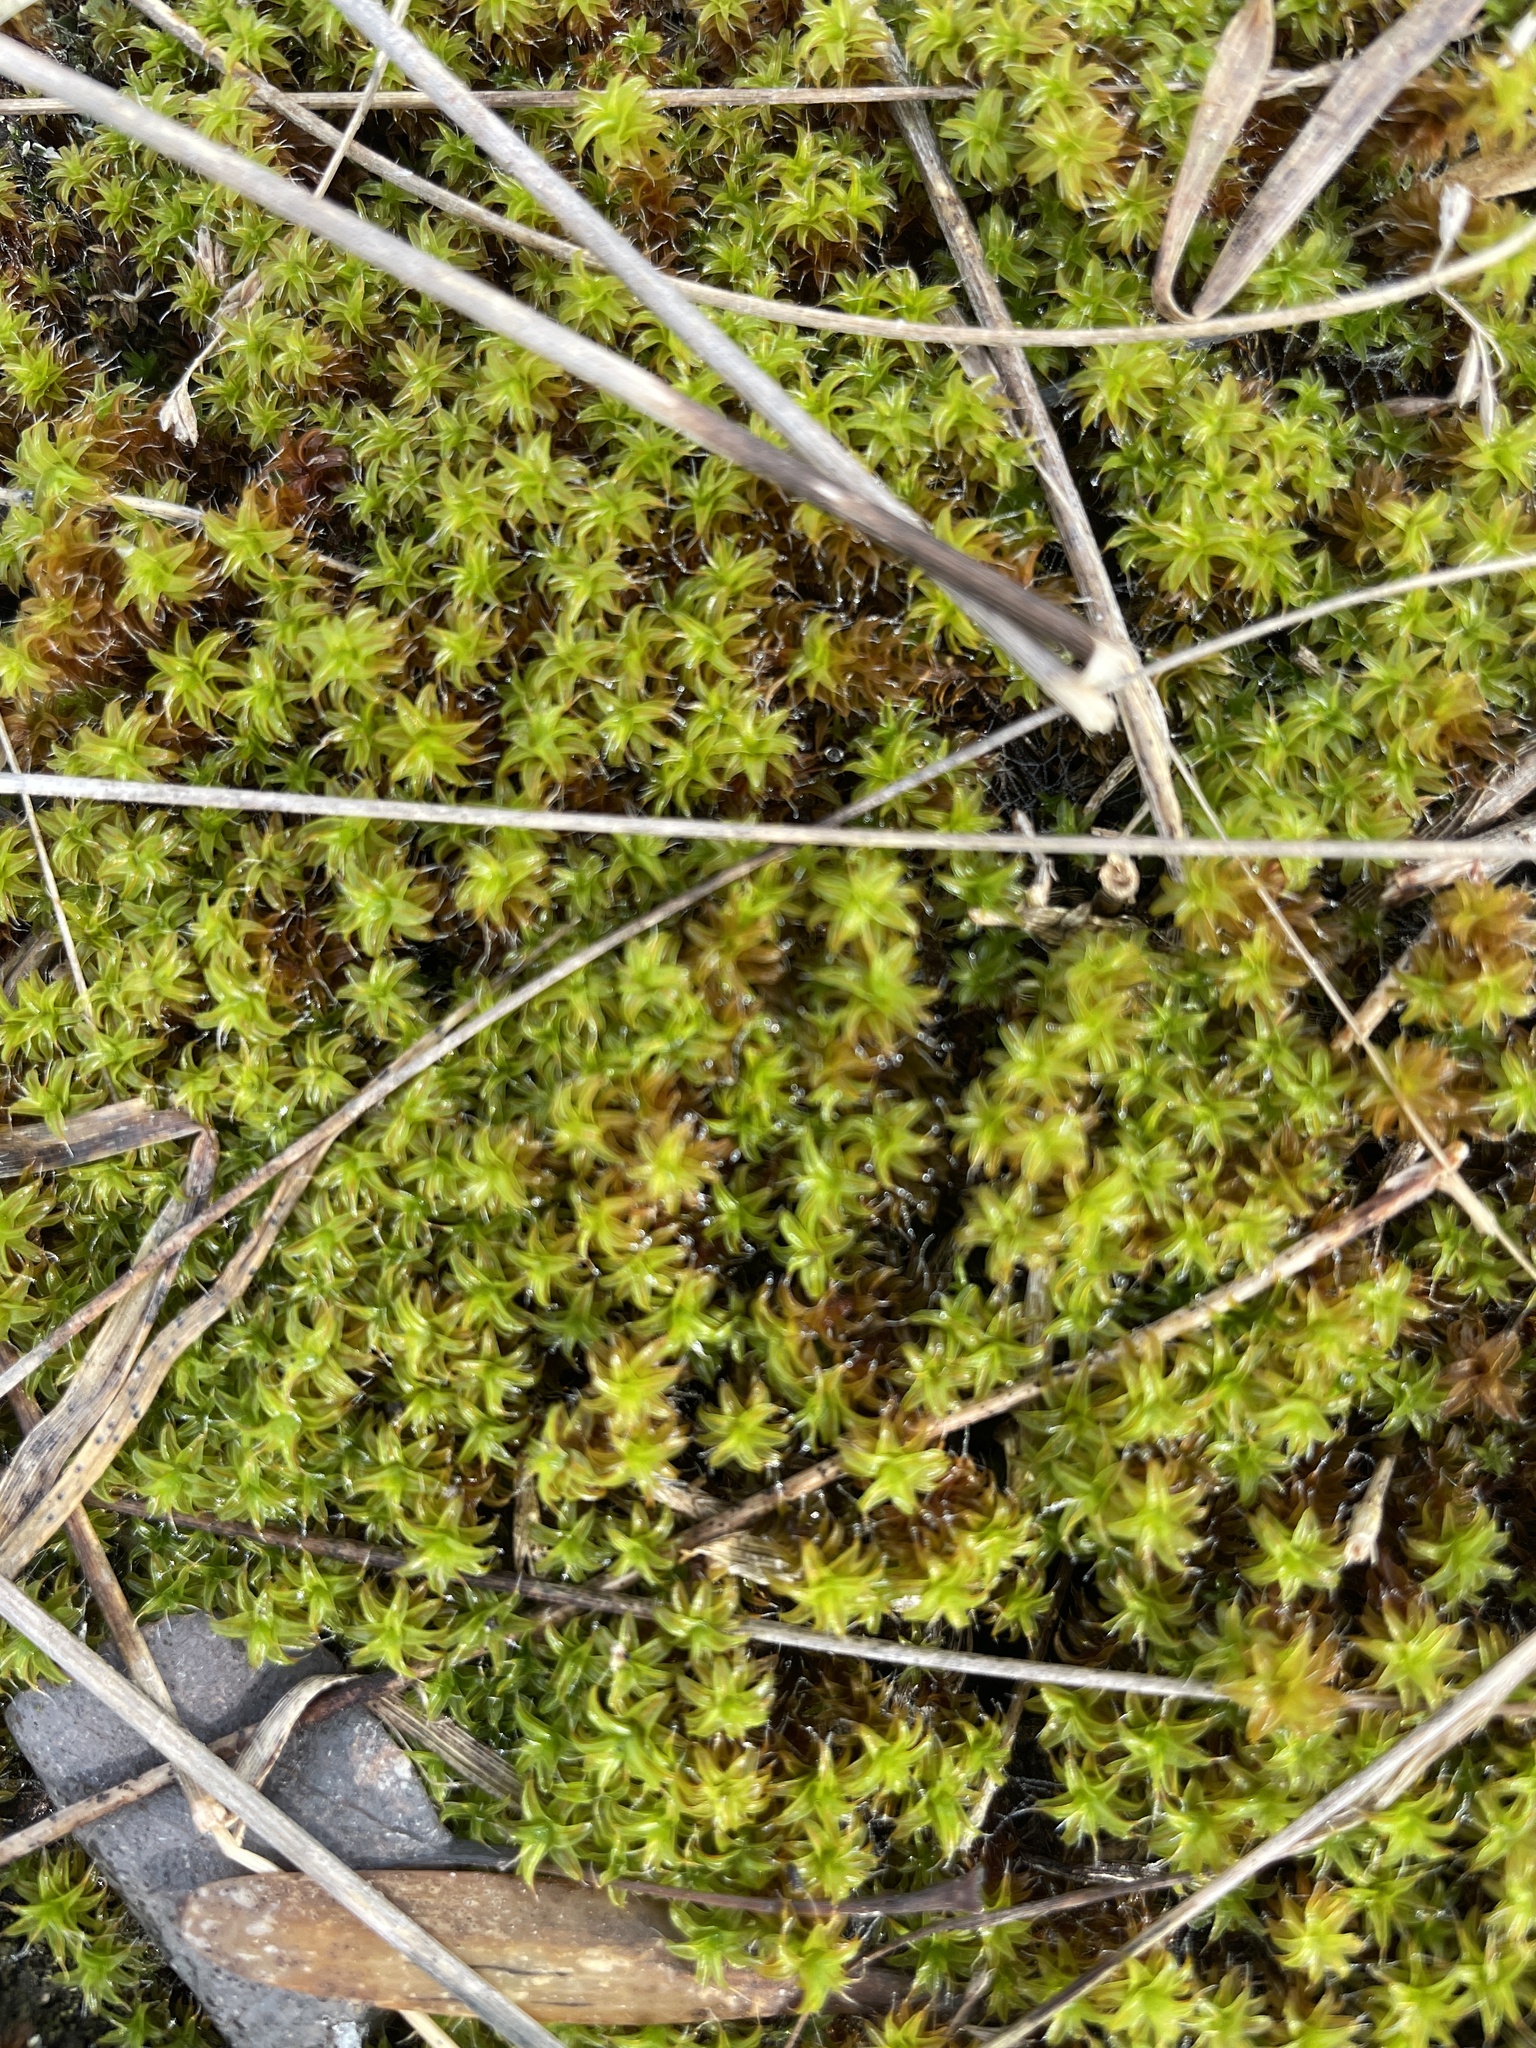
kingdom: Plantae
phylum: Bryophyta
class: Bryopsida
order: Pottiales
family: Pottiaceae
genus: Syntrichia
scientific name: Syntrichia ruralis
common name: Sidewalk screw moss
